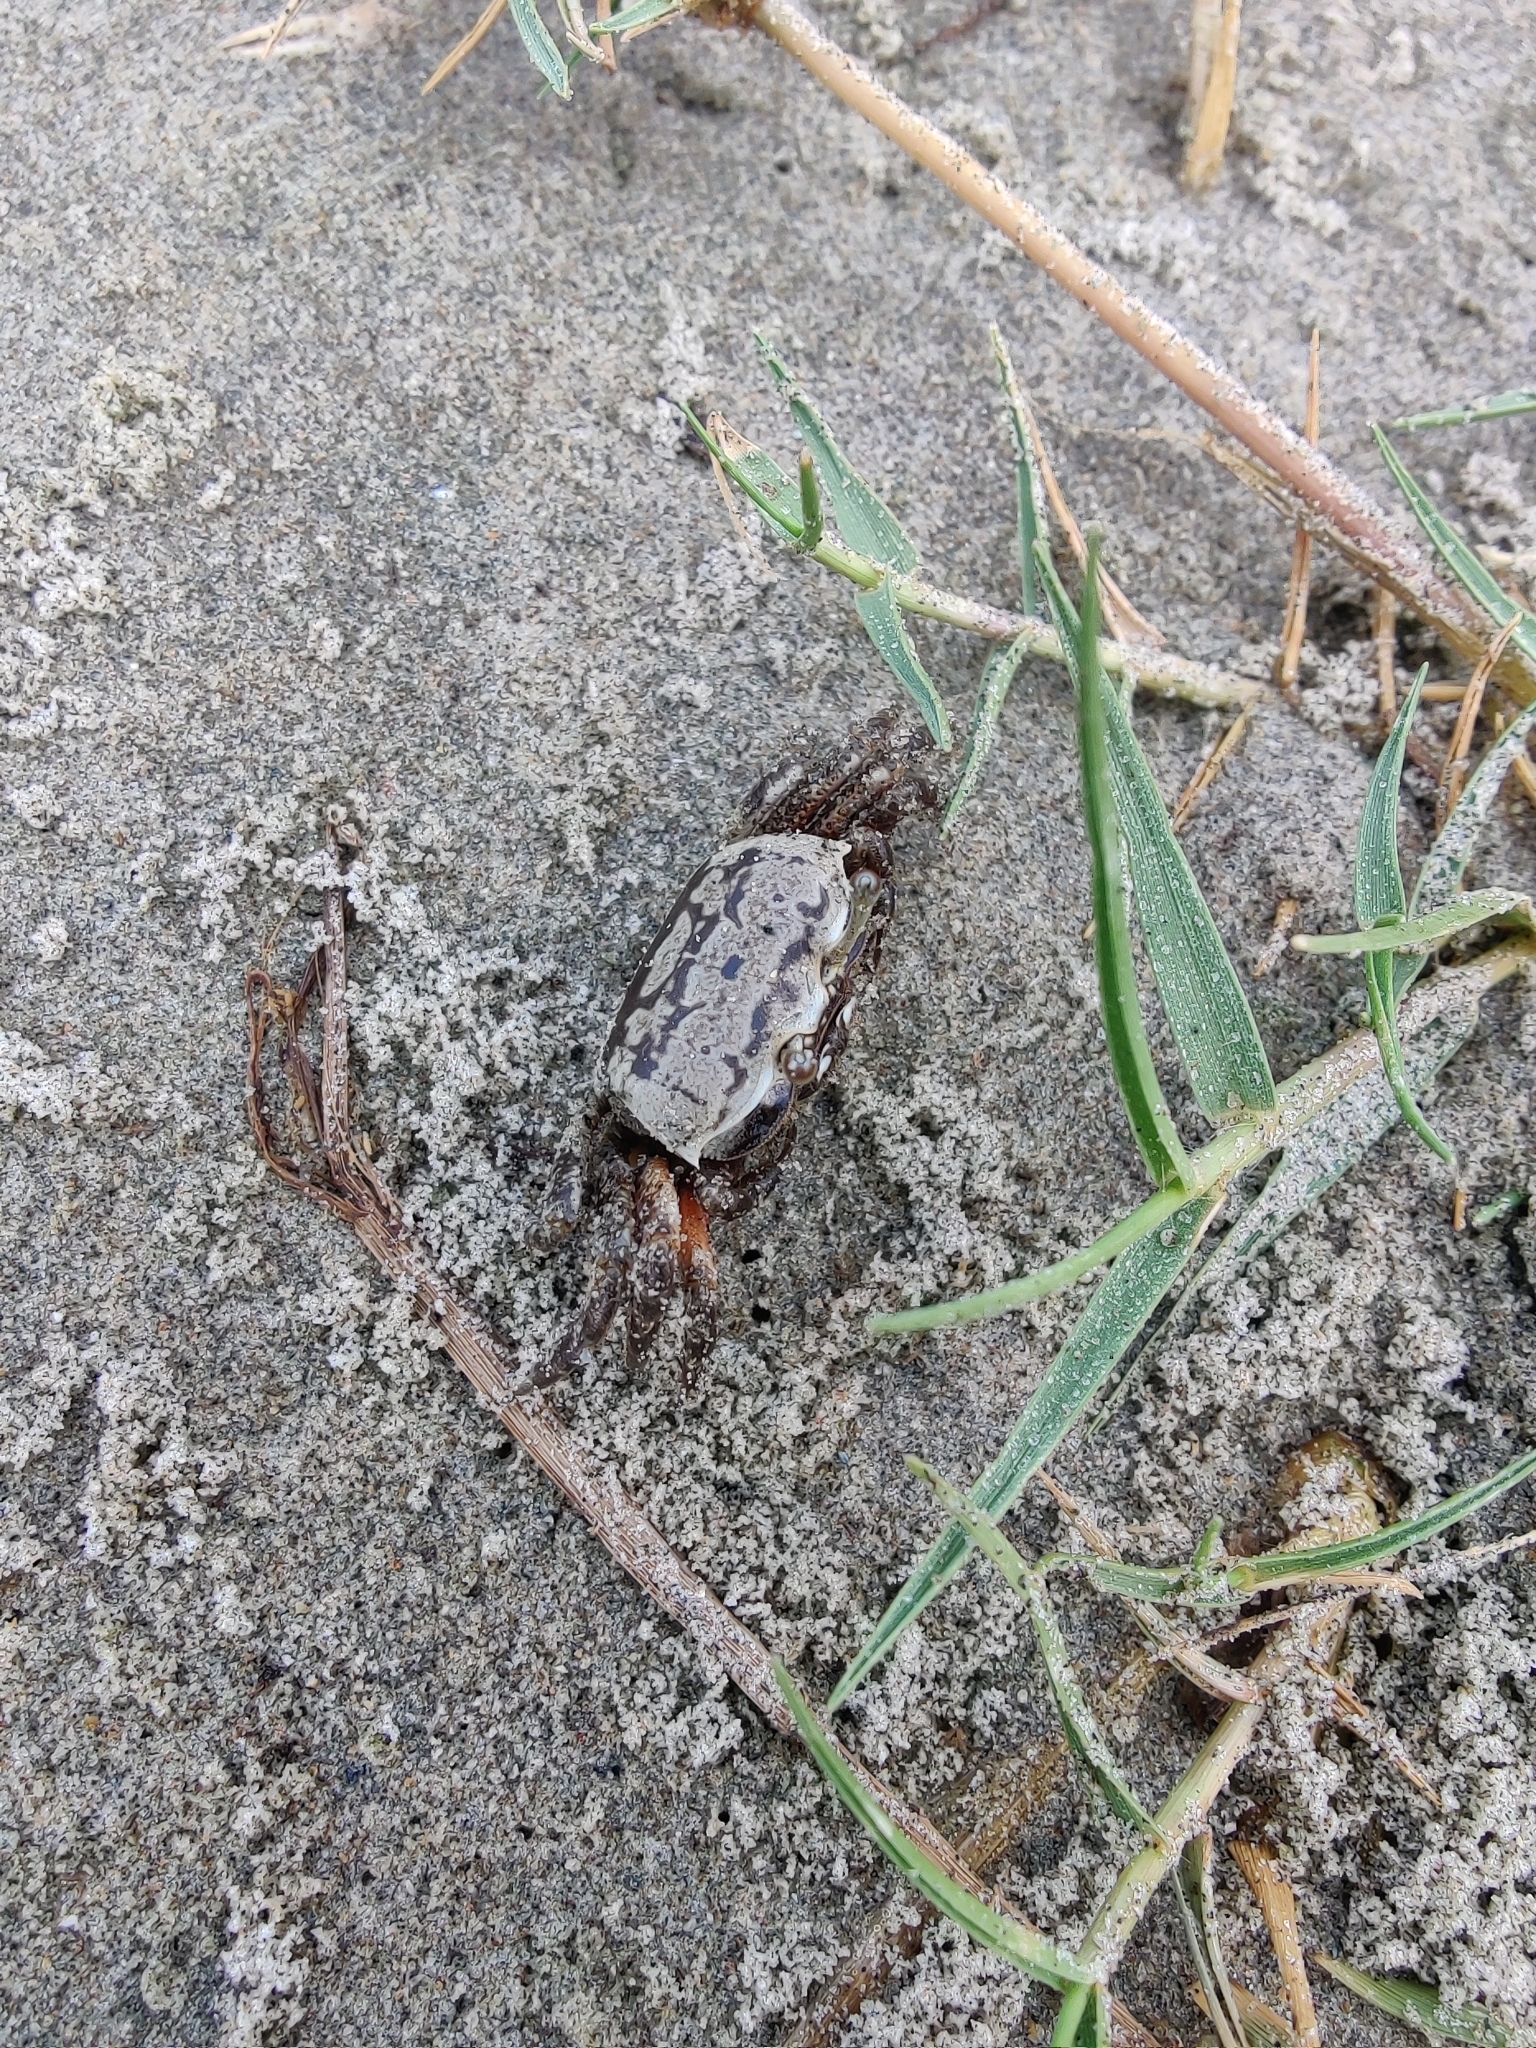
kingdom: Animalia
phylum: Arthropoda
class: Malacostraca
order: Decapoda
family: Ocypodidae
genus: Austruca
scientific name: Austruca annulipes
